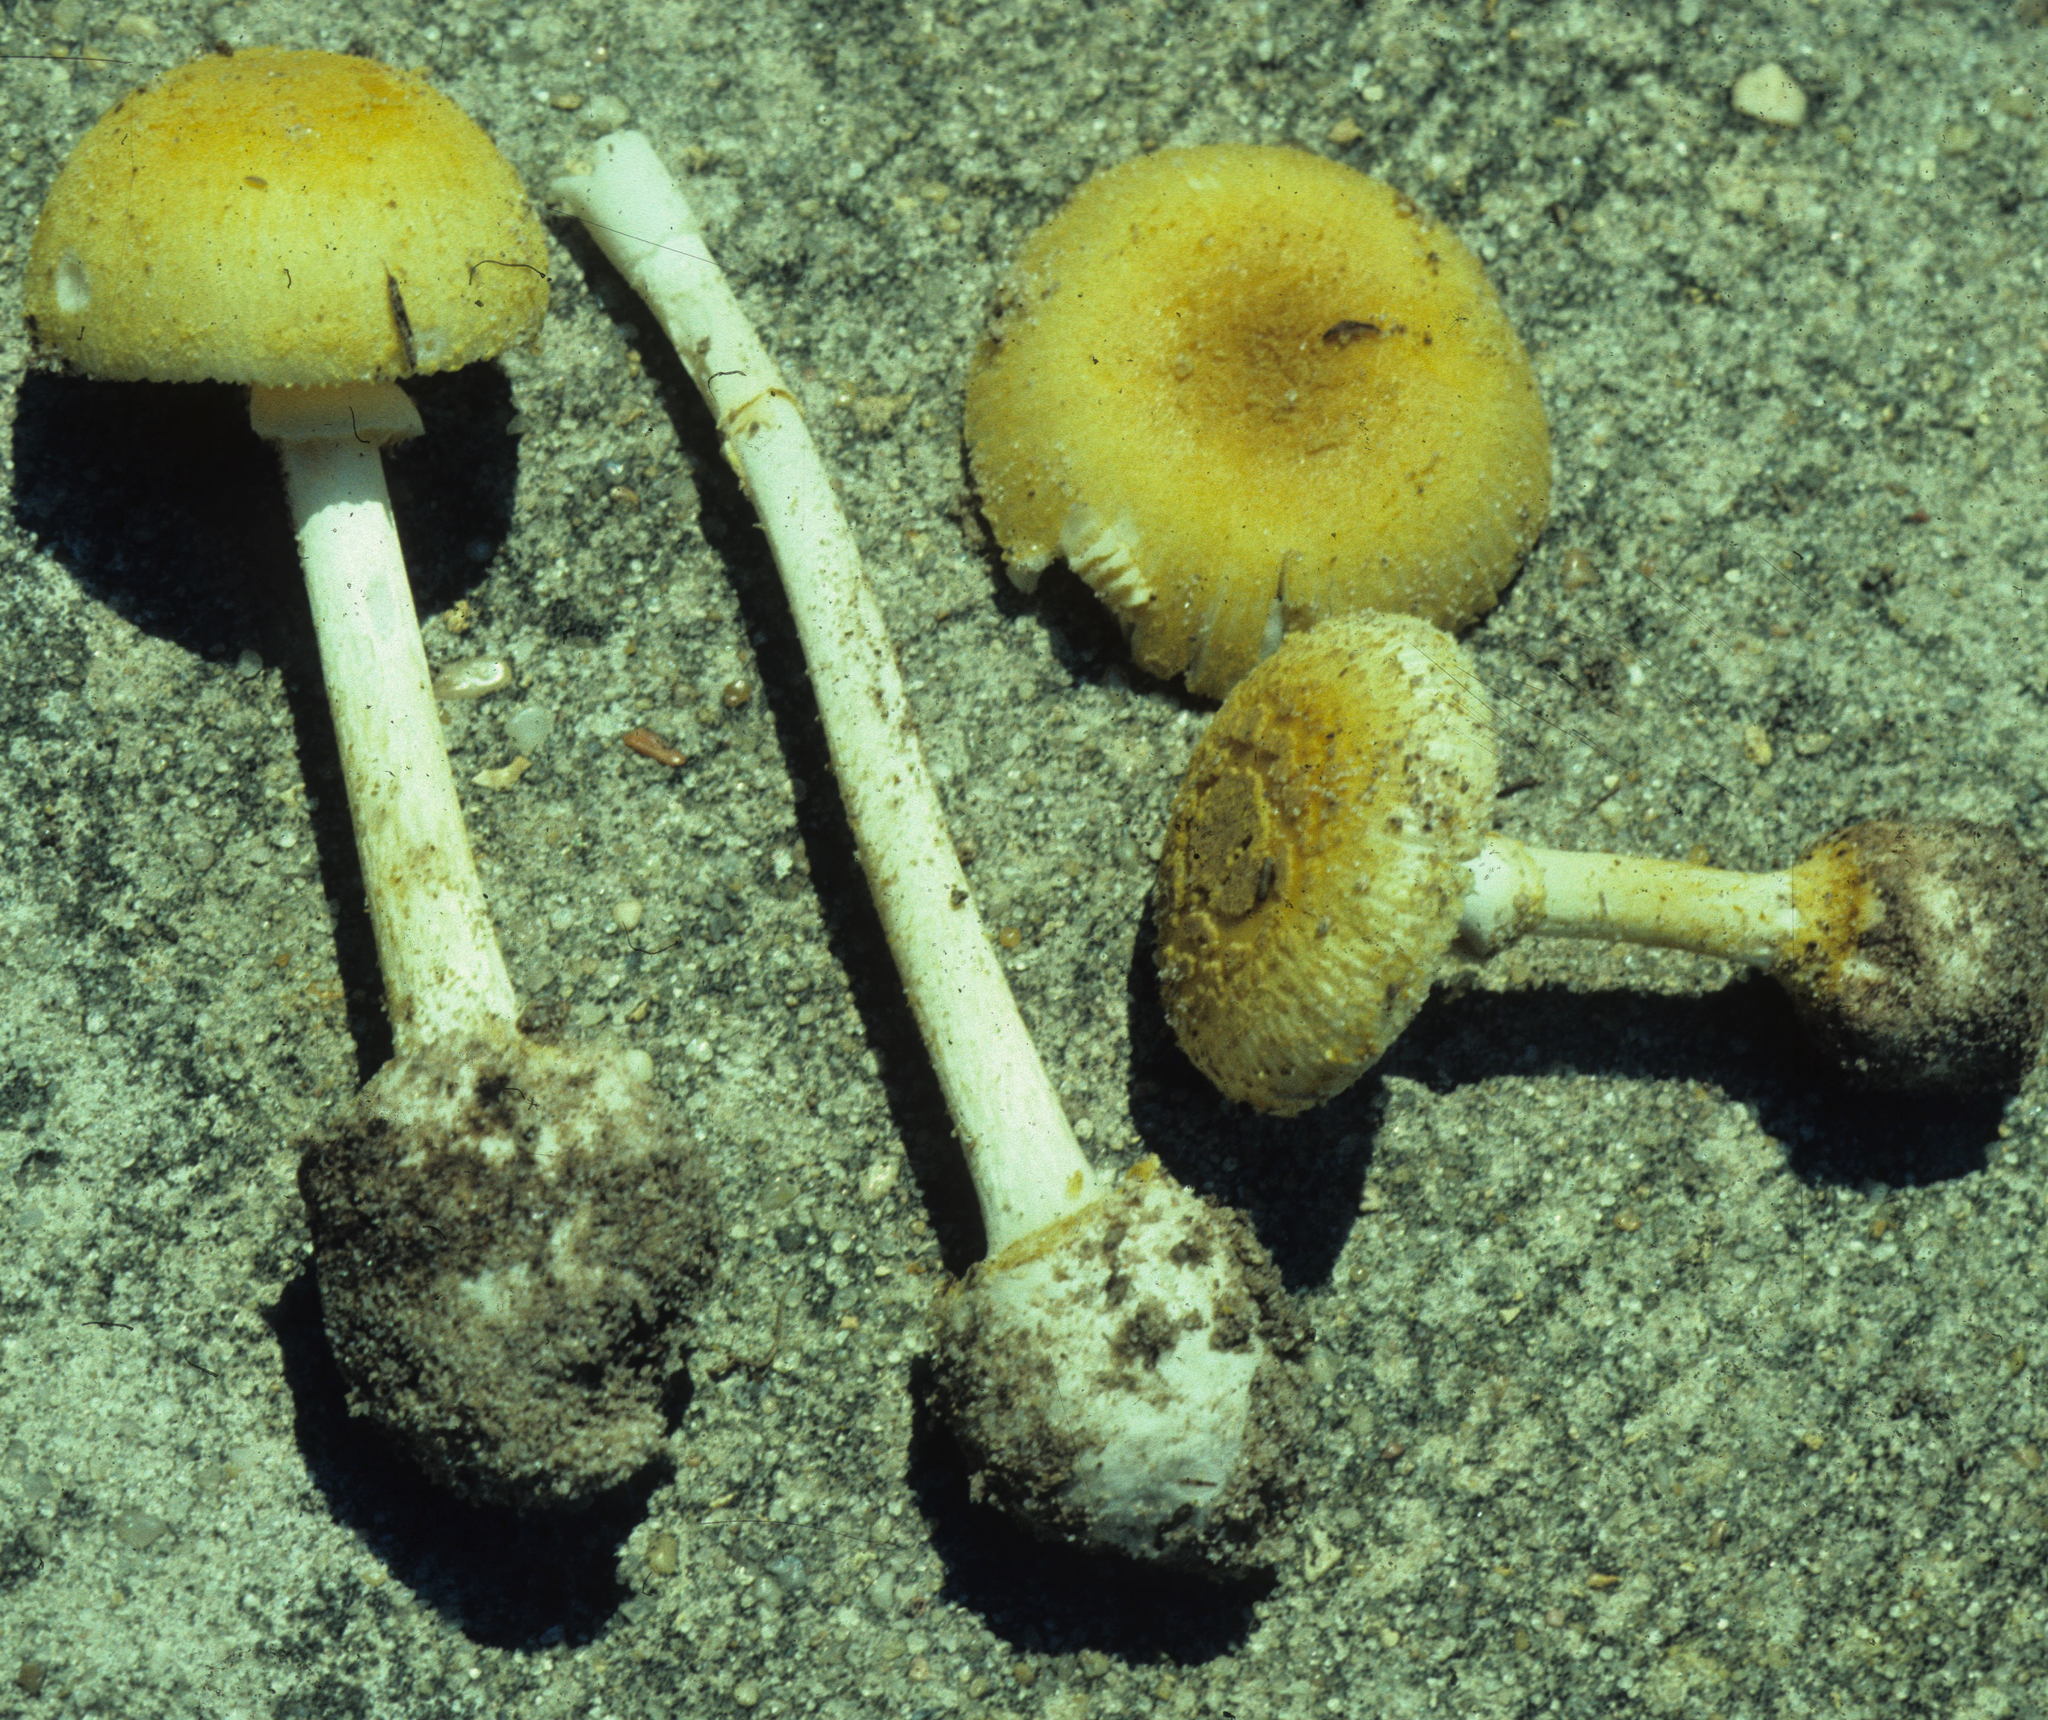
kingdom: Fungi
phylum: Basidiomycota
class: Agaricomycetes
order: Agaricales
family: Amanitaceae
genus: Amanita
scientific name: Amanita levistriata
